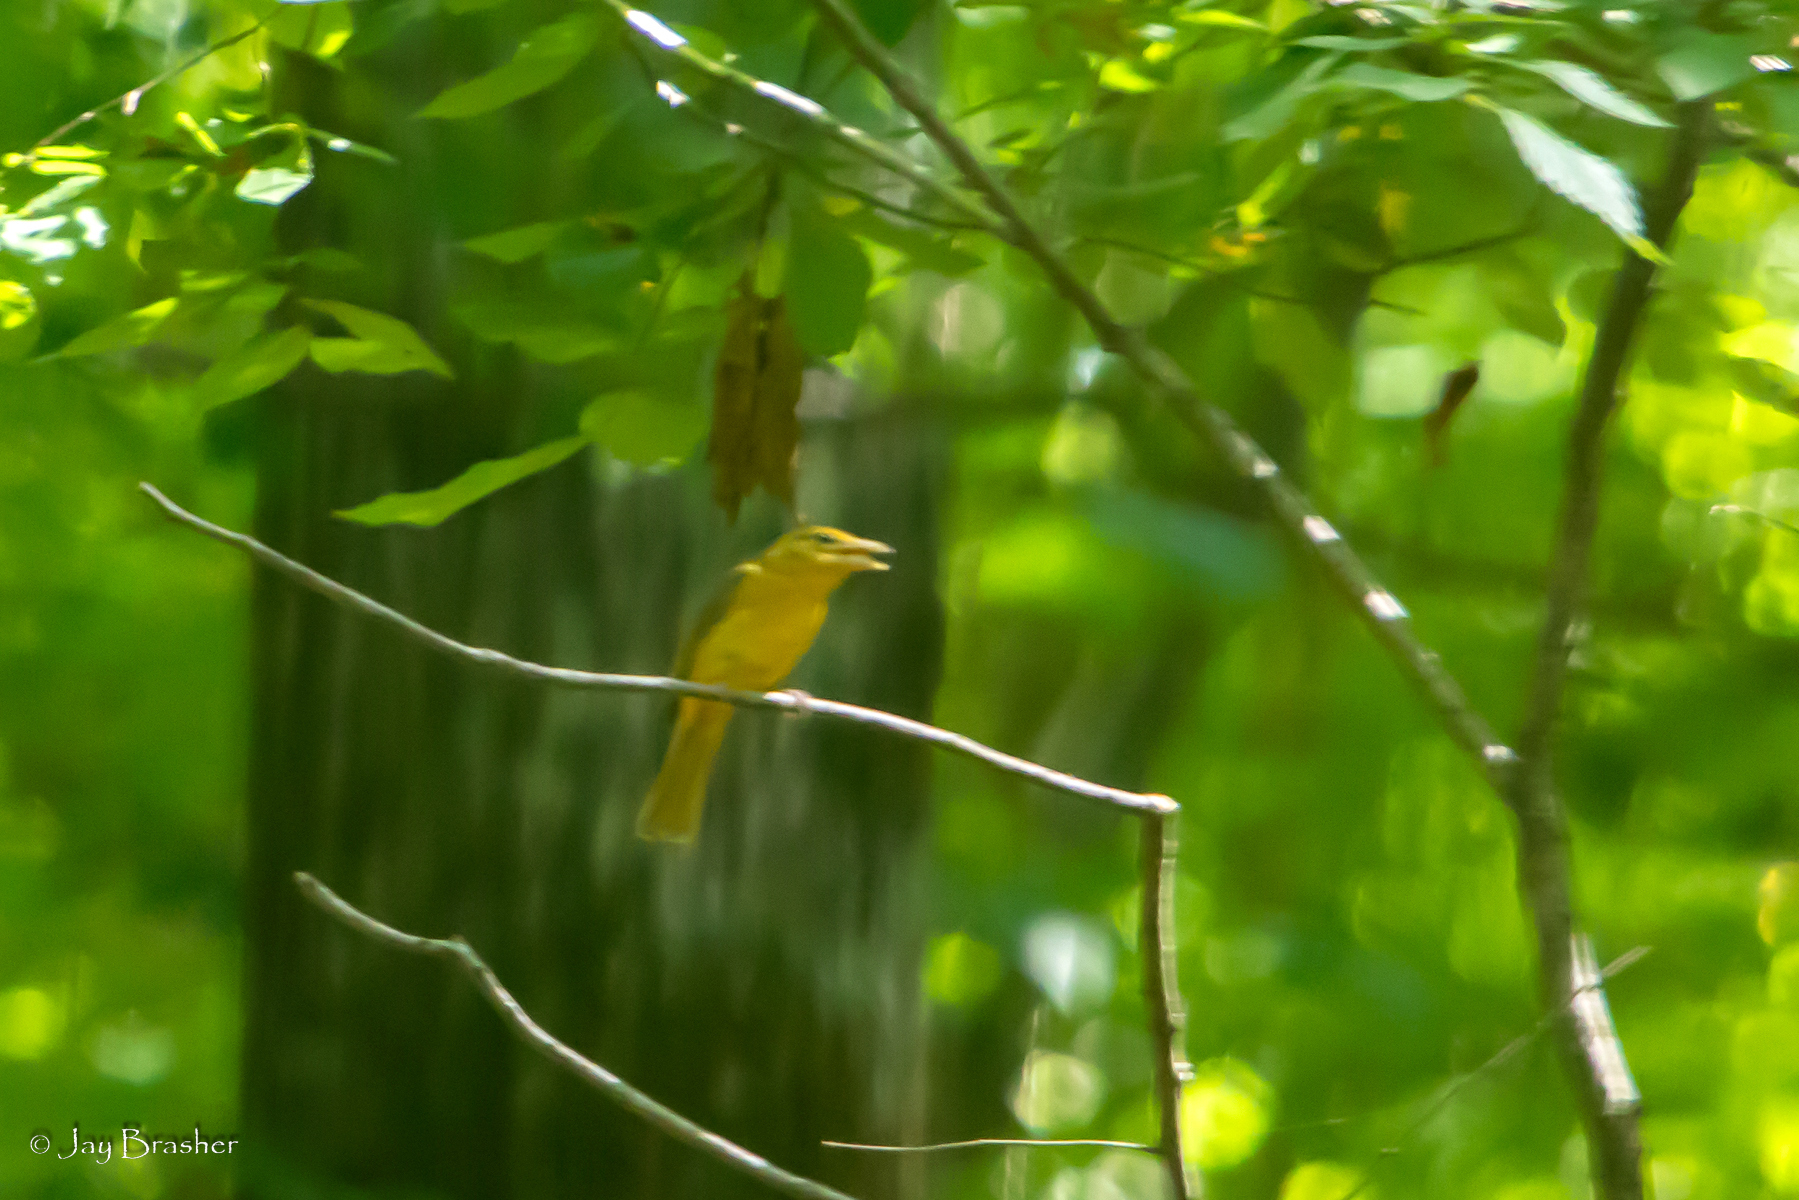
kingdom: Animalia
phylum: Chordata
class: Aves
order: Passeriformes
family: Cardinalidae
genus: Piranga
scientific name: Piranga rubra
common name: Summer tanager
